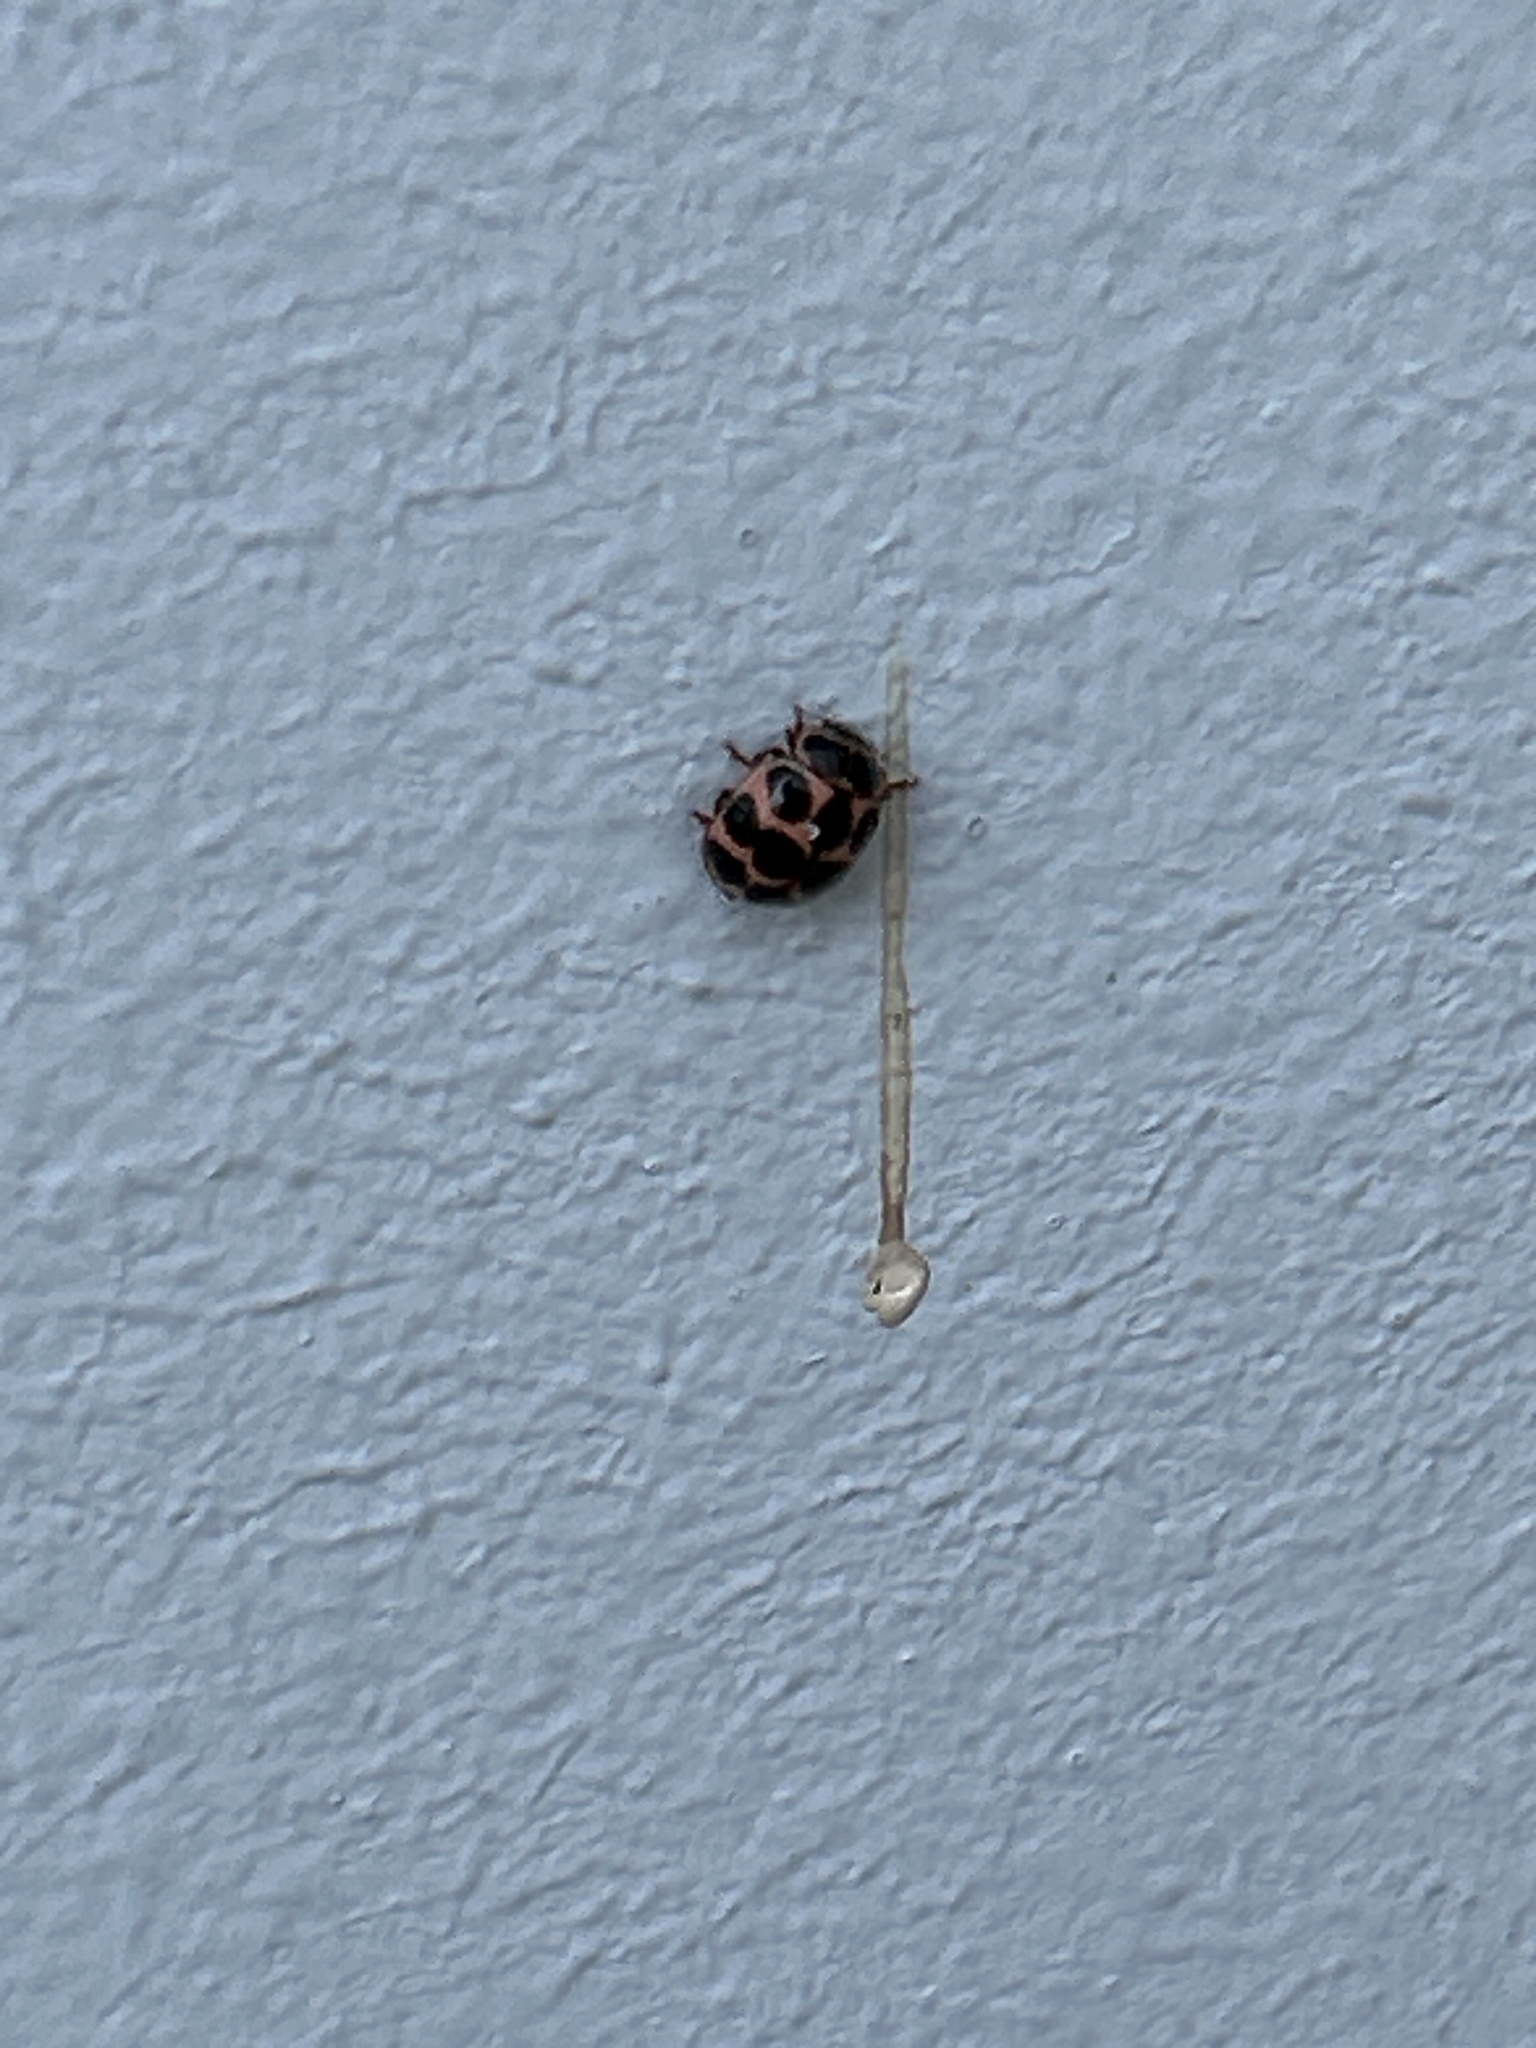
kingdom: Animalia
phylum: Arthropoda
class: Insecta
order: Coleoptera
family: Coccinellidae
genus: Calvia
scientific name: Calvia quatuordecimguttata
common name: Cream-spot ladybird
